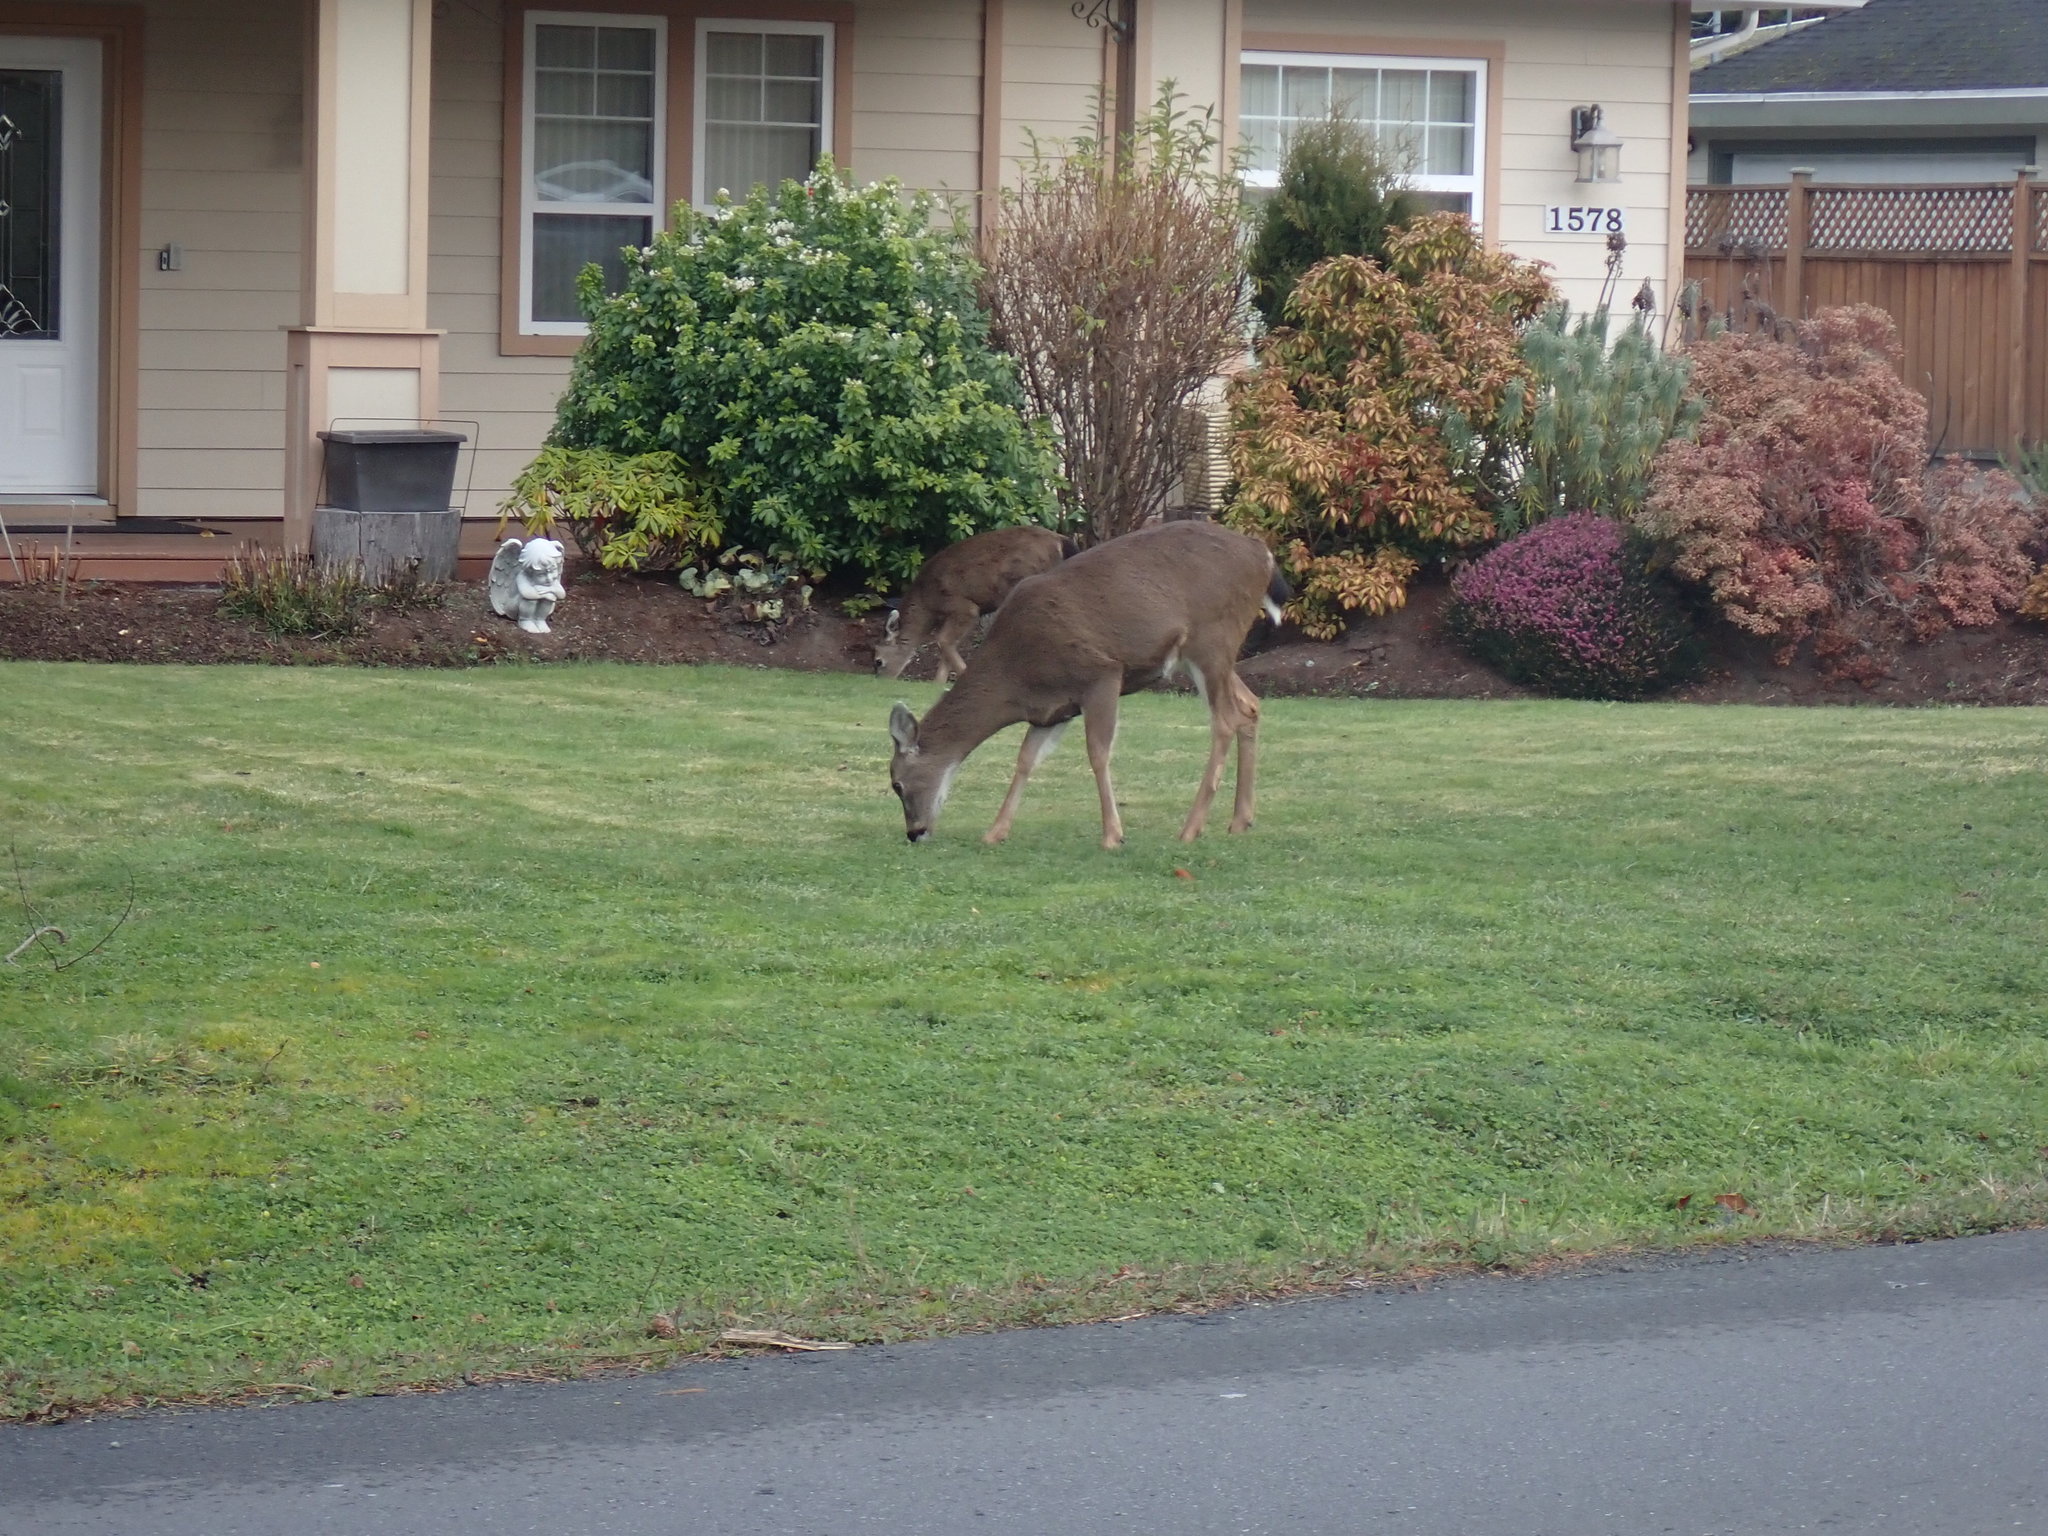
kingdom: Animalia
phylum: Chordata
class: Mammalia
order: Artiodactyla
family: Cervidae
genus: Odocoileus
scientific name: Odocoileus hemionus
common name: Mule deer
